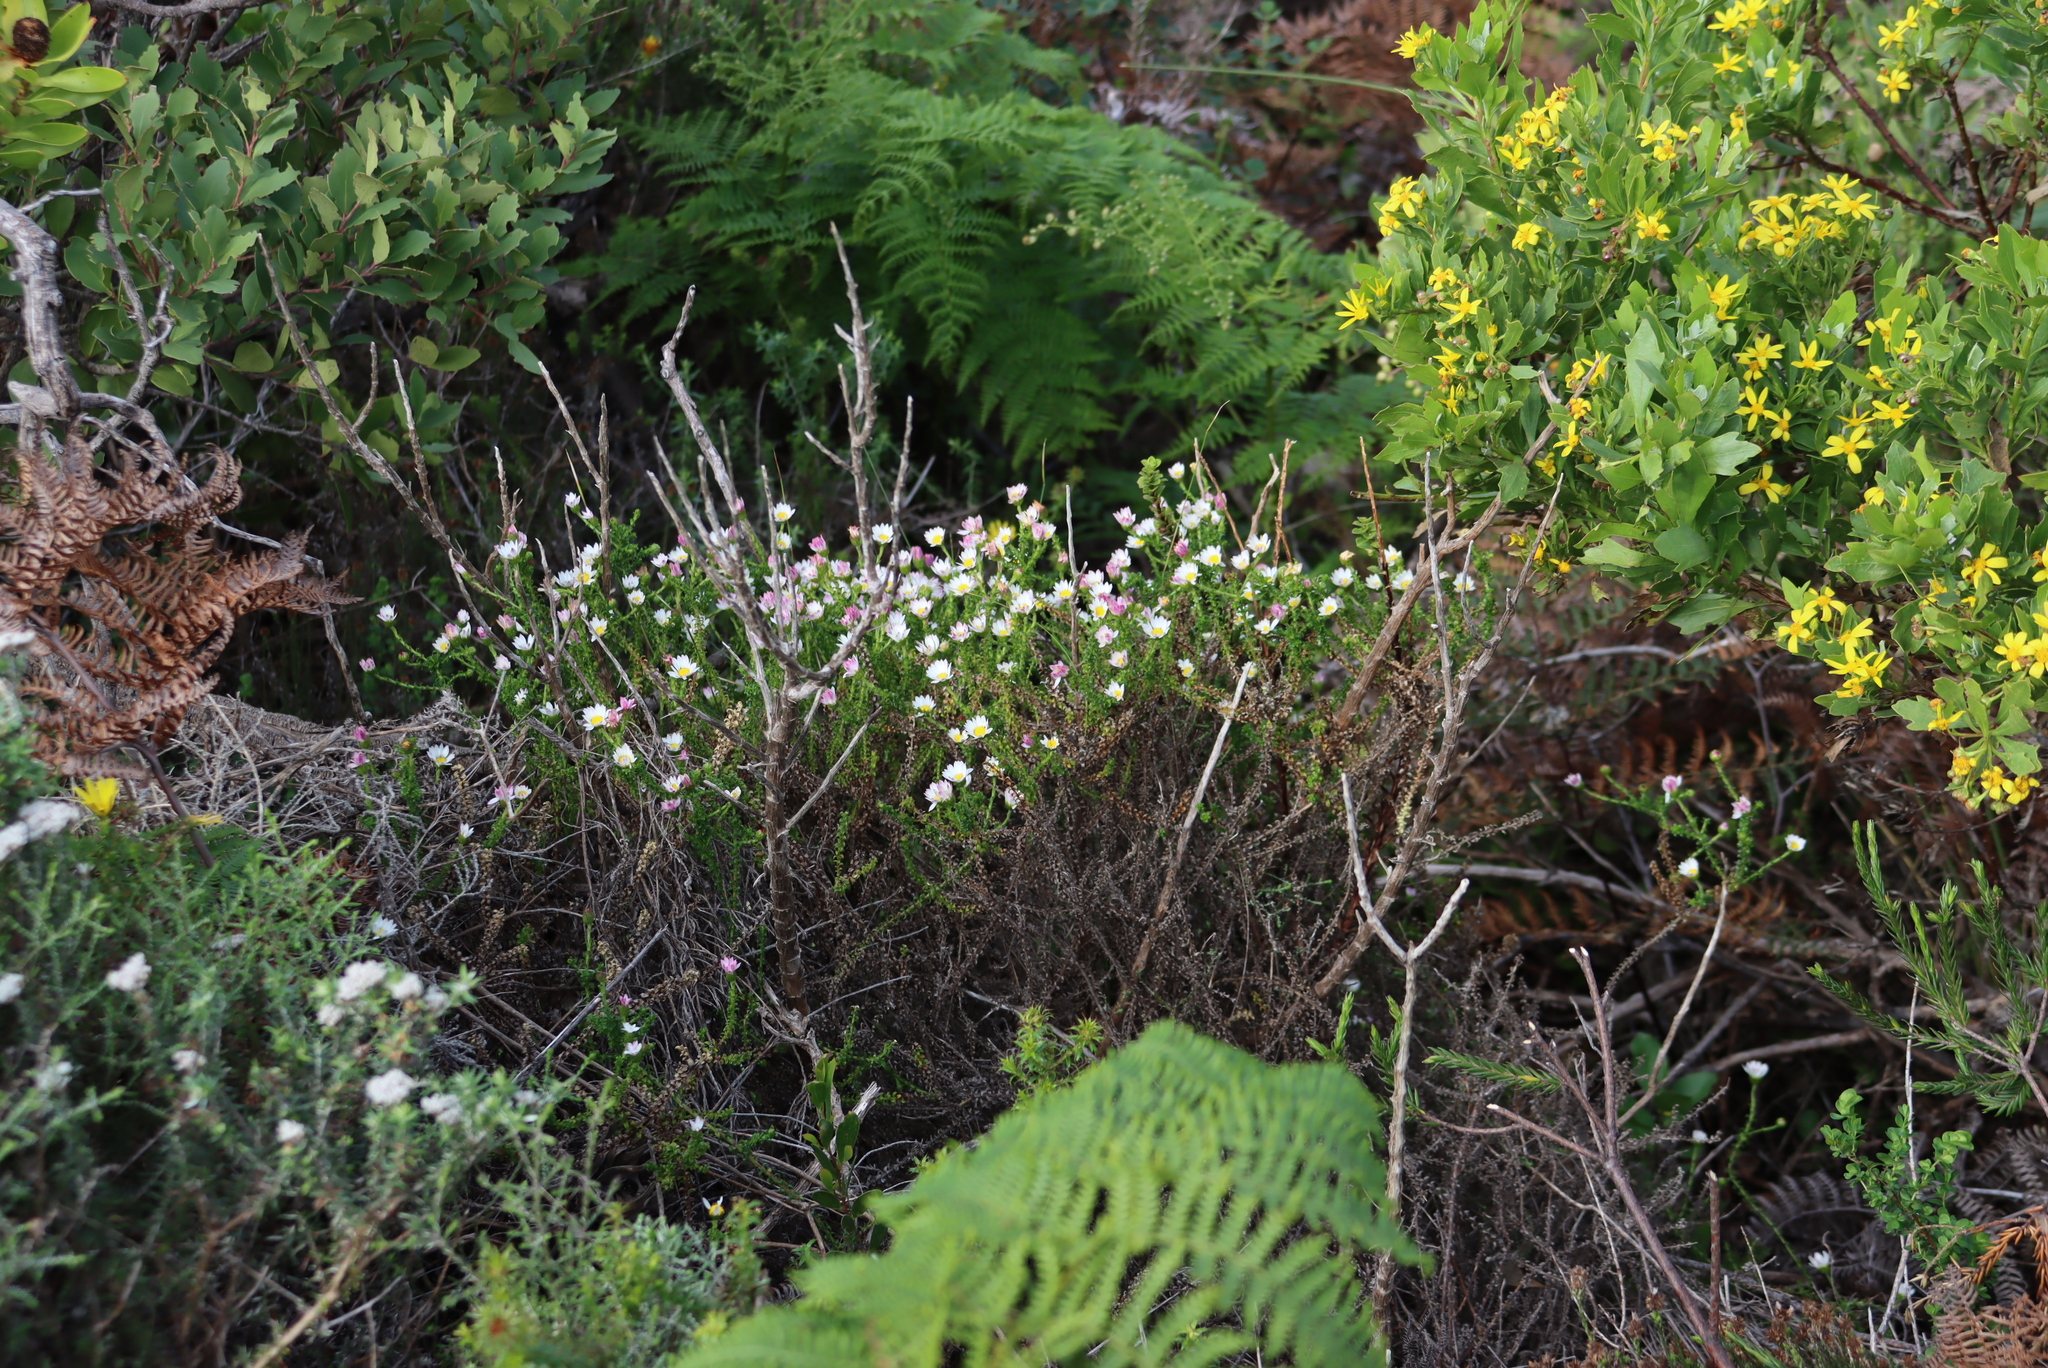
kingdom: Plantae
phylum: Tracheophyta
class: Magnoliopsida
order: Asterales
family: Asteraceae
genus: Polyarrhena
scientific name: Polyarrhena reflexa
